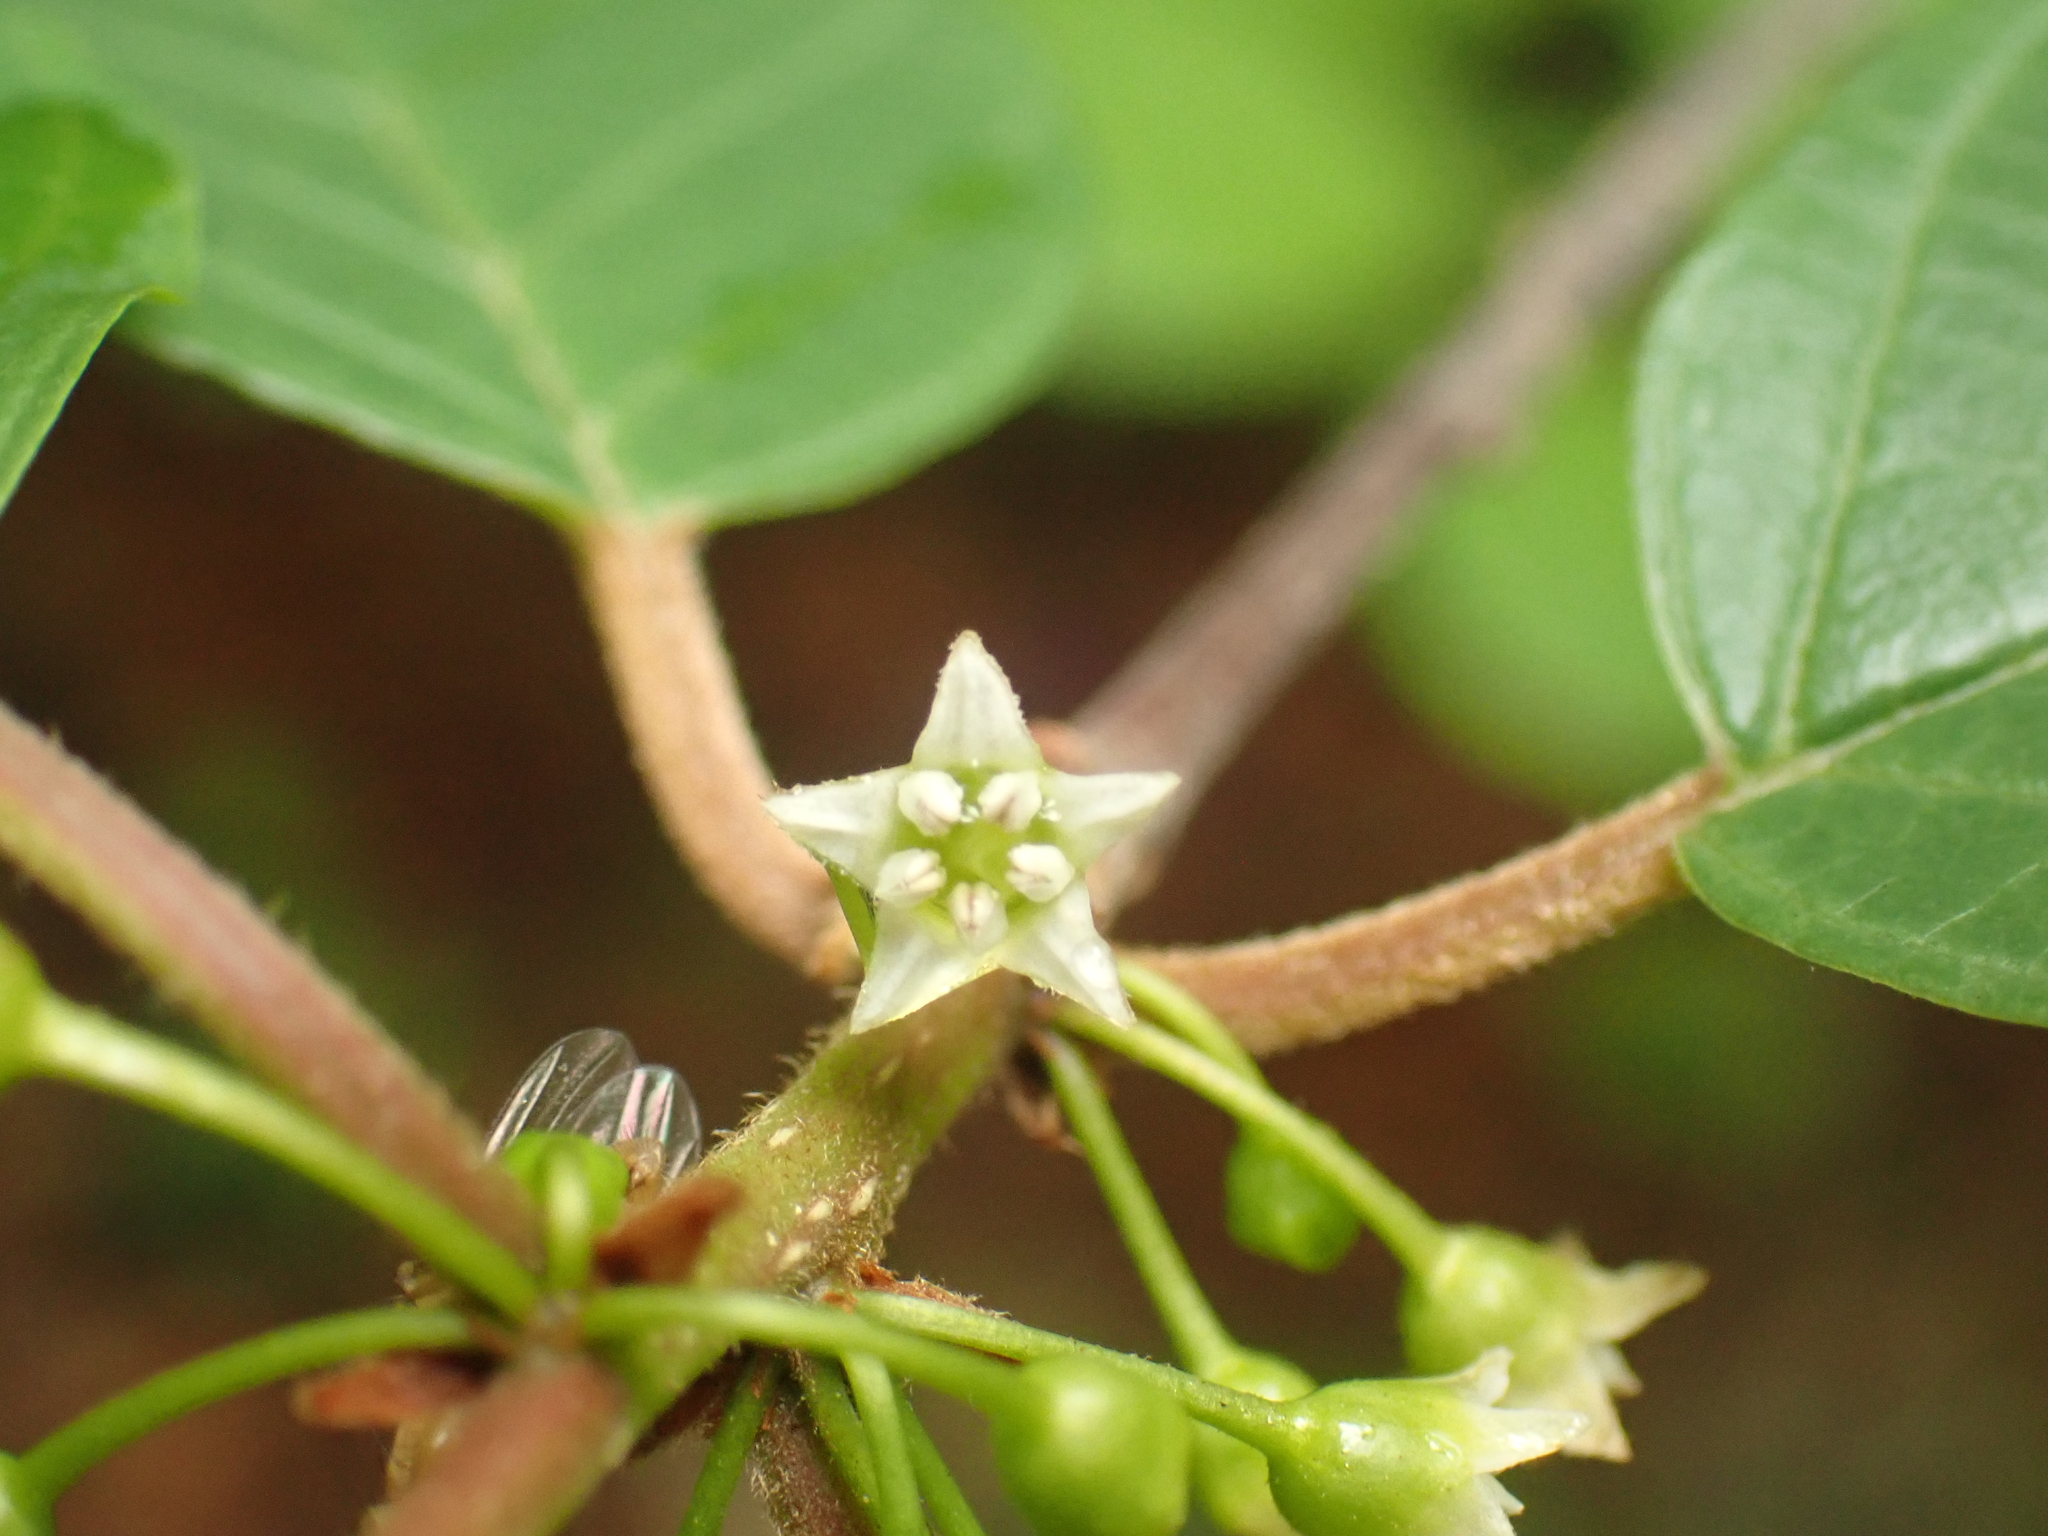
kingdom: Plantae
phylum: Tracheophyta
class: Magnoliopsida
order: Rosales
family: Rhamnaceae
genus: Frangula
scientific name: Frangula alnus
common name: Alder buckthorn
